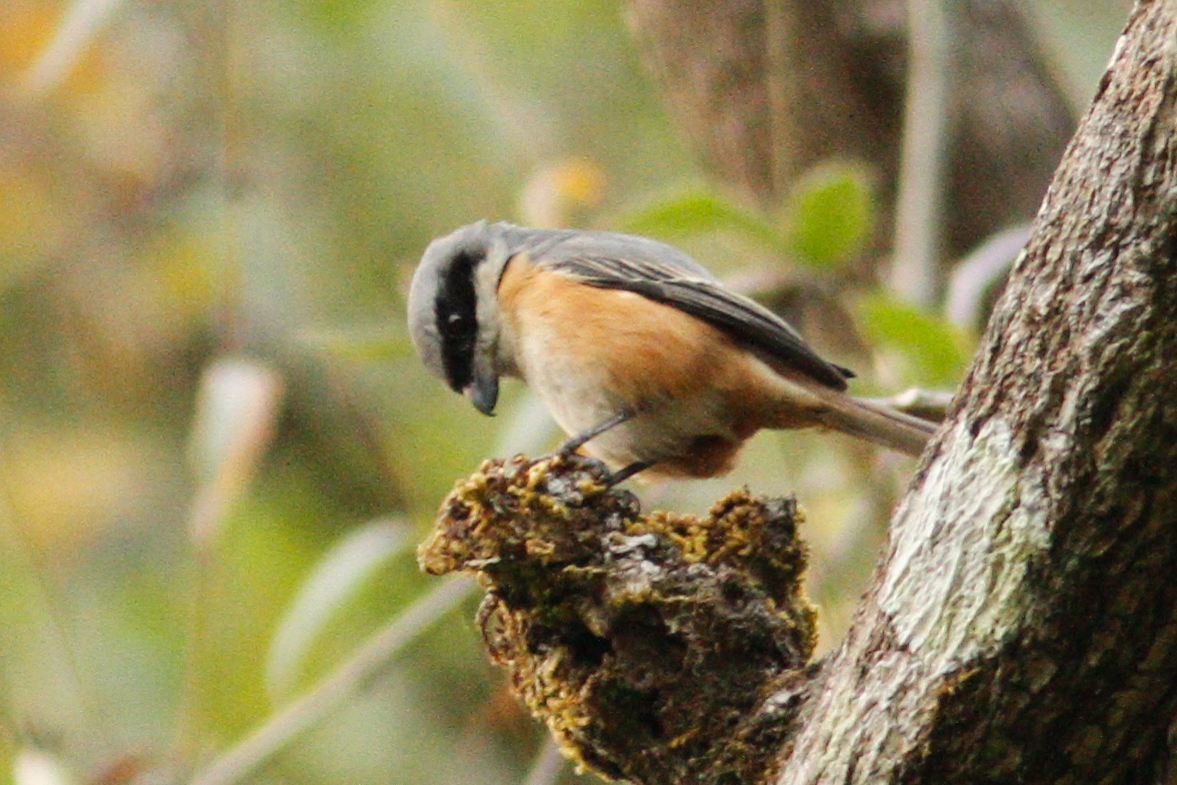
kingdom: Animalia
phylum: Chordata
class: Aves
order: Passeriformes
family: Laniidae
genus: Lanius
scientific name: Lanius tephronotus
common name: Grey-backed shrike
